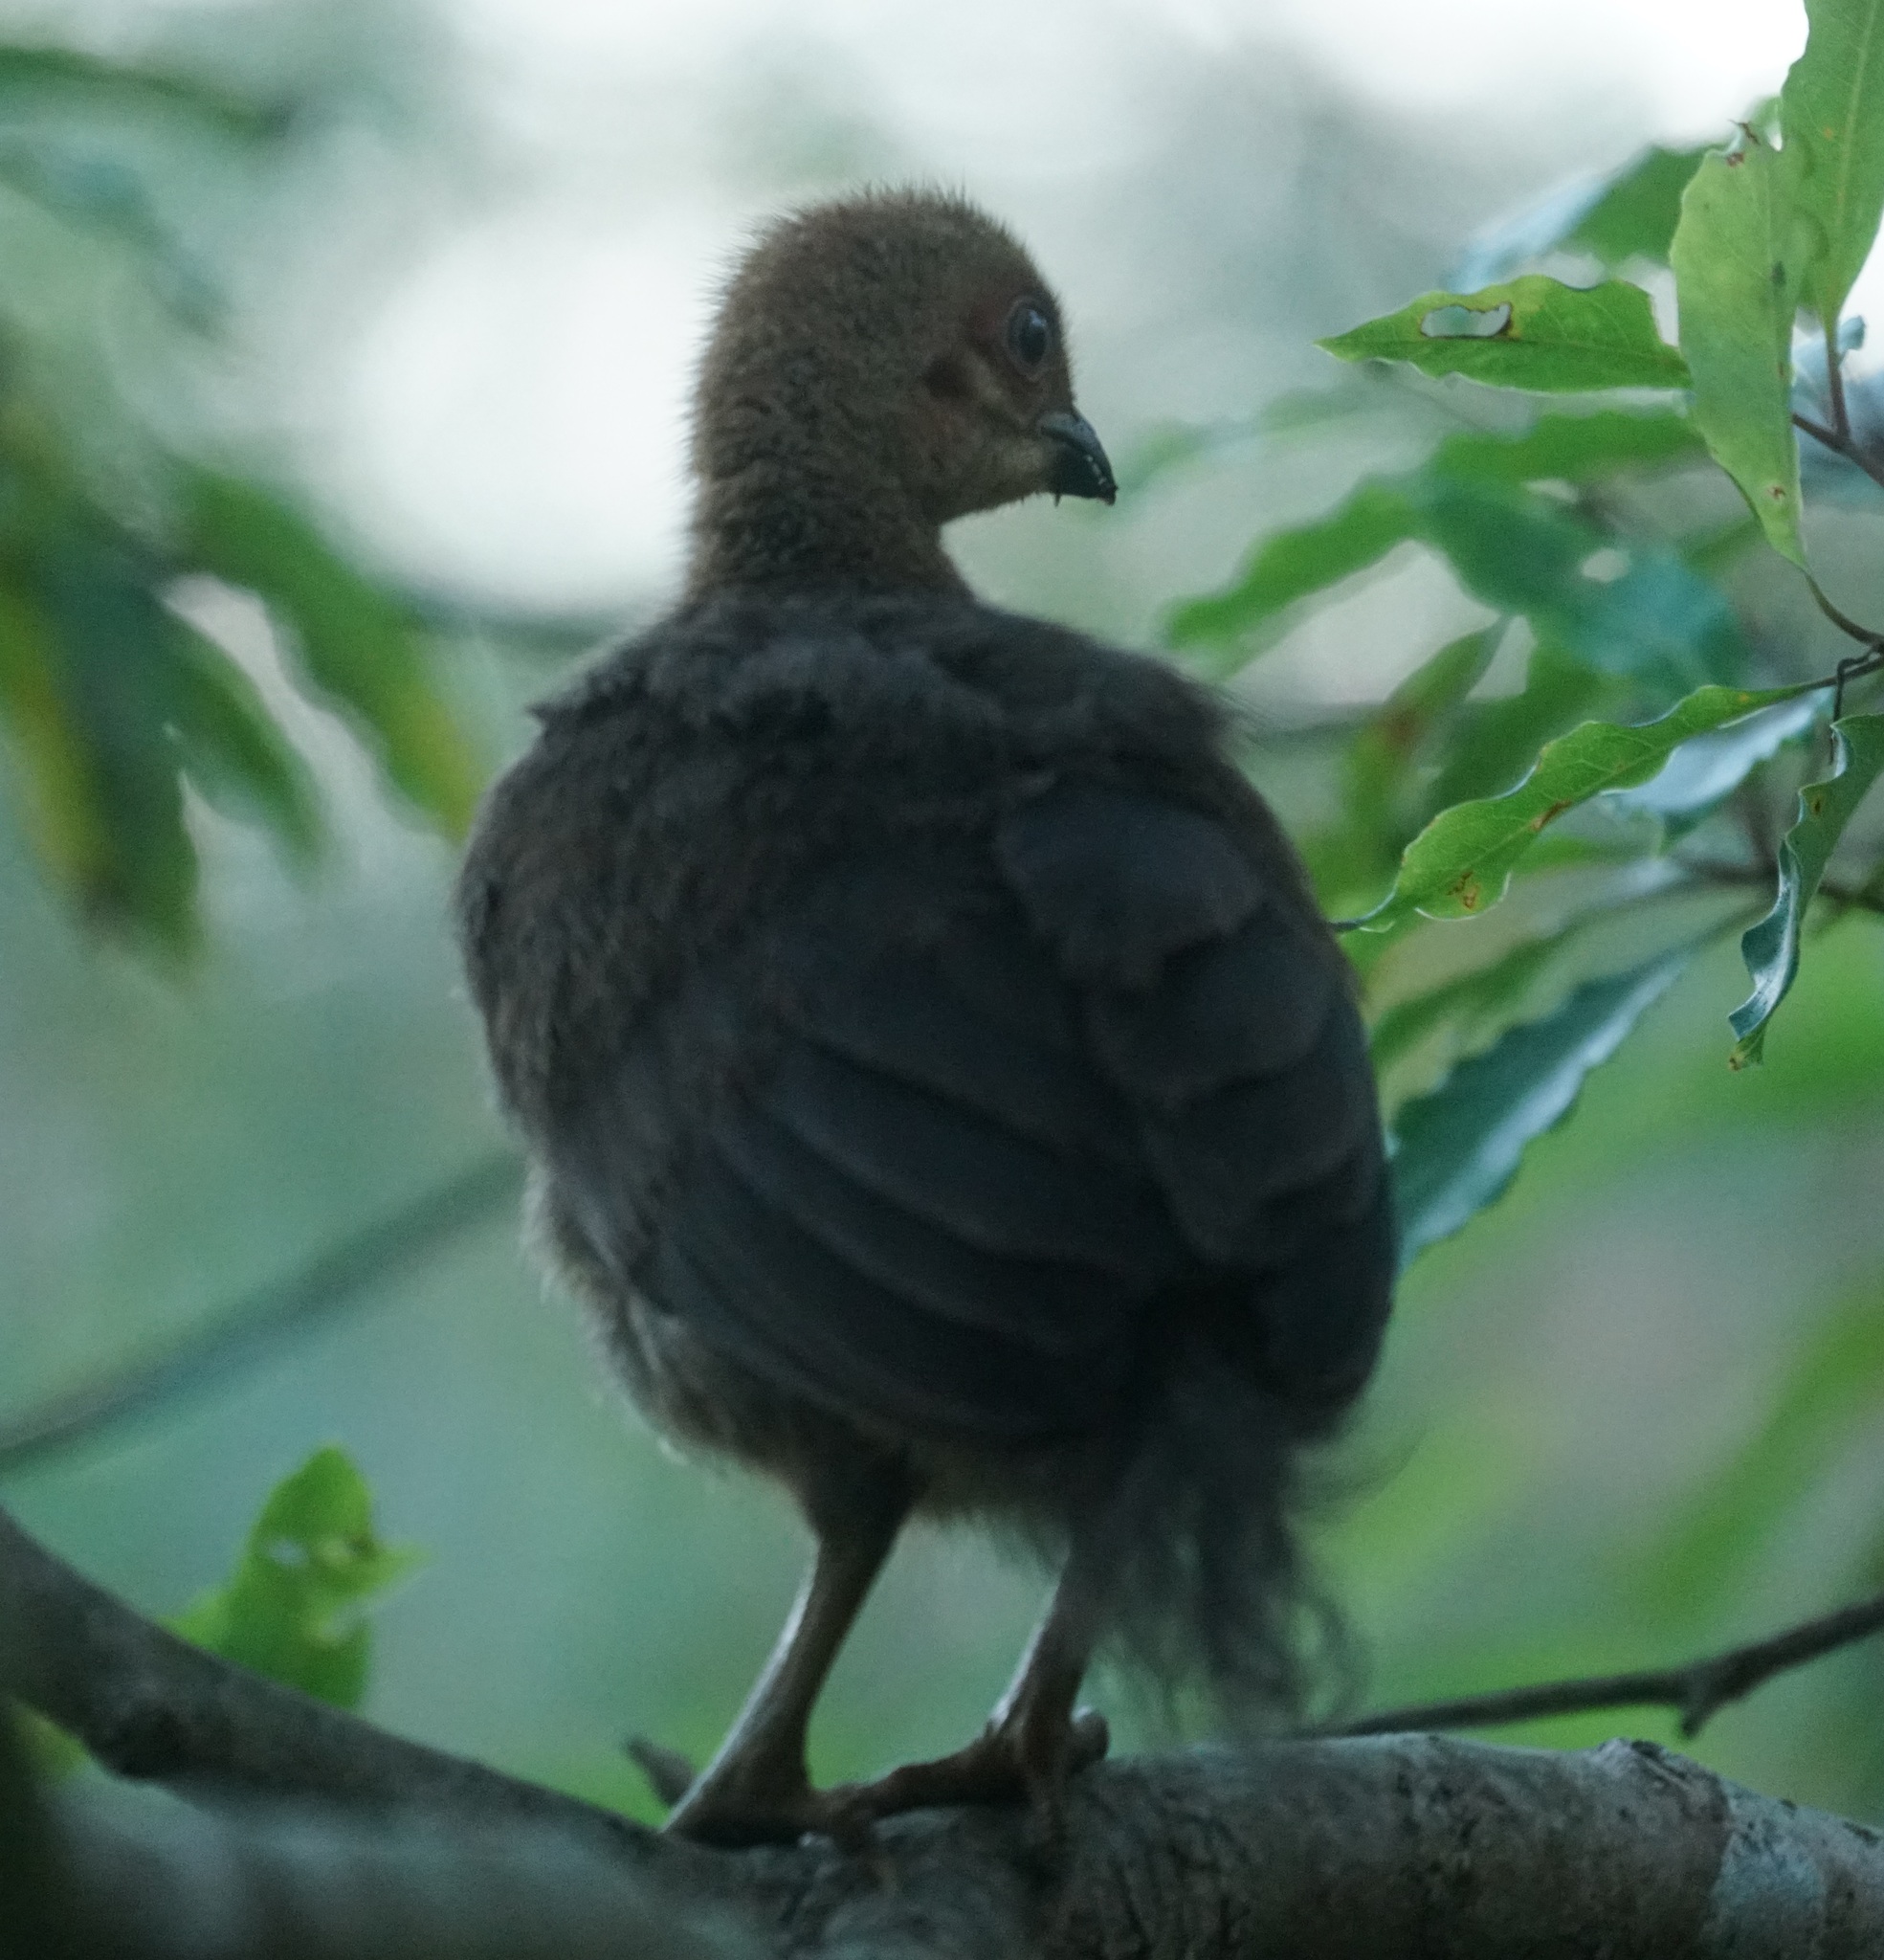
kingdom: Animalia
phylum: Chordata
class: Aves
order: Galliformes
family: Megapodiidae
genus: Alectura
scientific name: Alectura lathami
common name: Australian brushturkey
